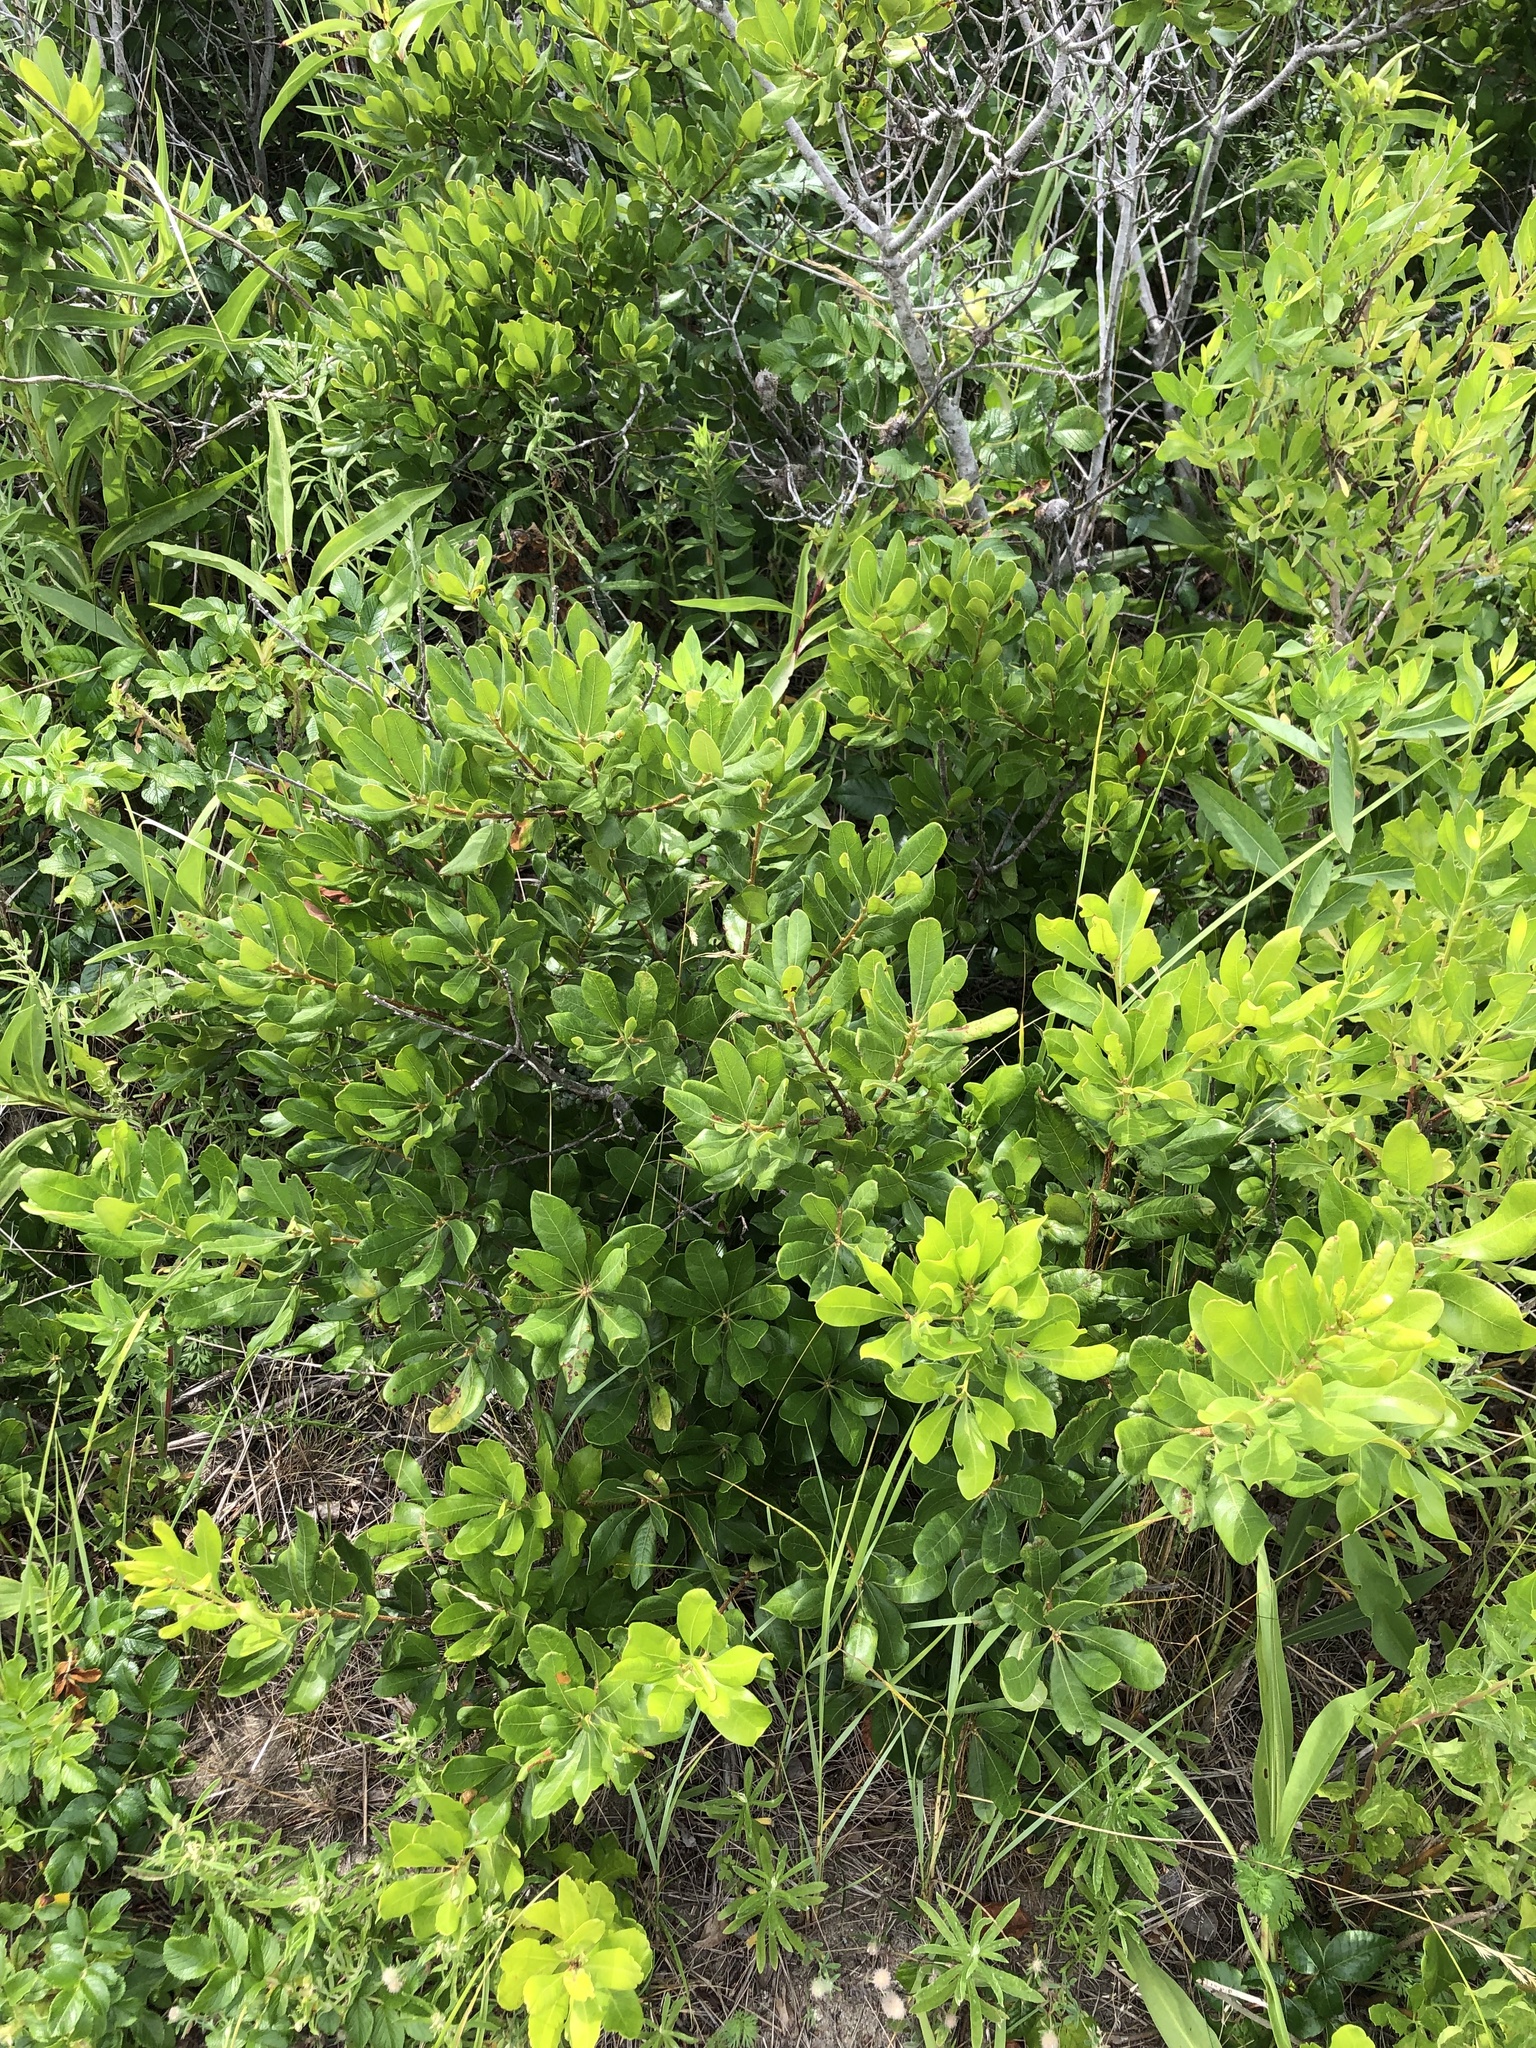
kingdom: Plantae
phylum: Tracheophyta
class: Magnoliopsida
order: Fagales
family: Myricaceae
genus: Morella
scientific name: Morella pensylvanica
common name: Northern bayberry
